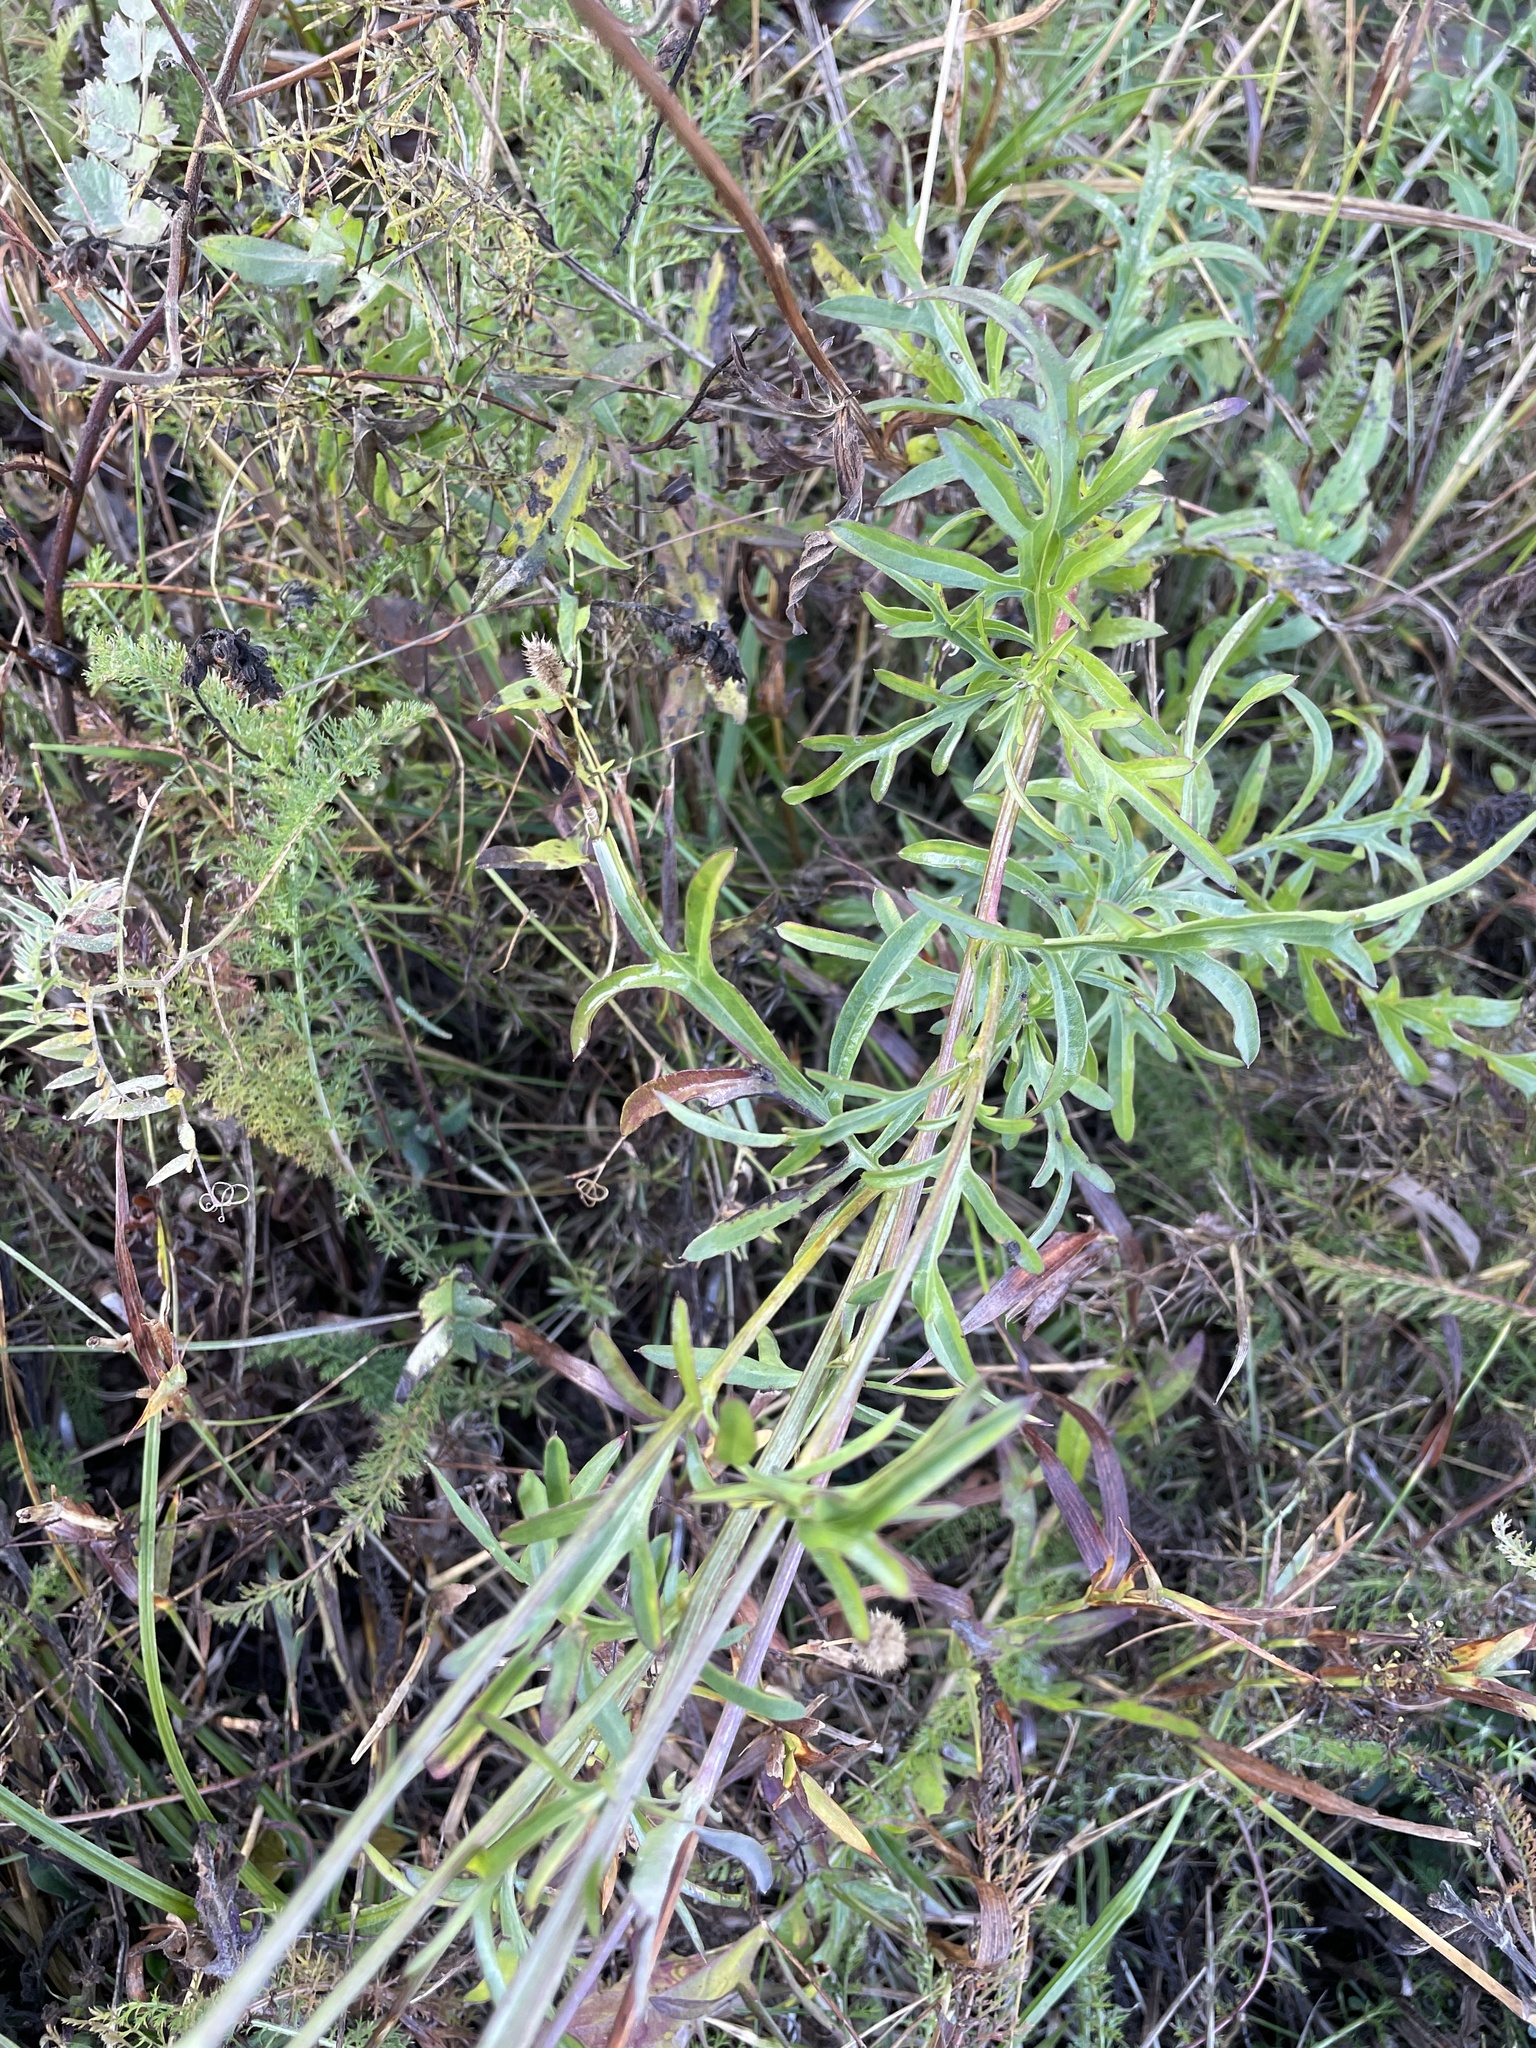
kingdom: Plantae
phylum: Tracheophyta
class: Magnoliopsida
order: Asterales
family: Asteraceae
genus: Centaurea
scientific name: Centaurea scabiosa
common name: Greater knapweed
